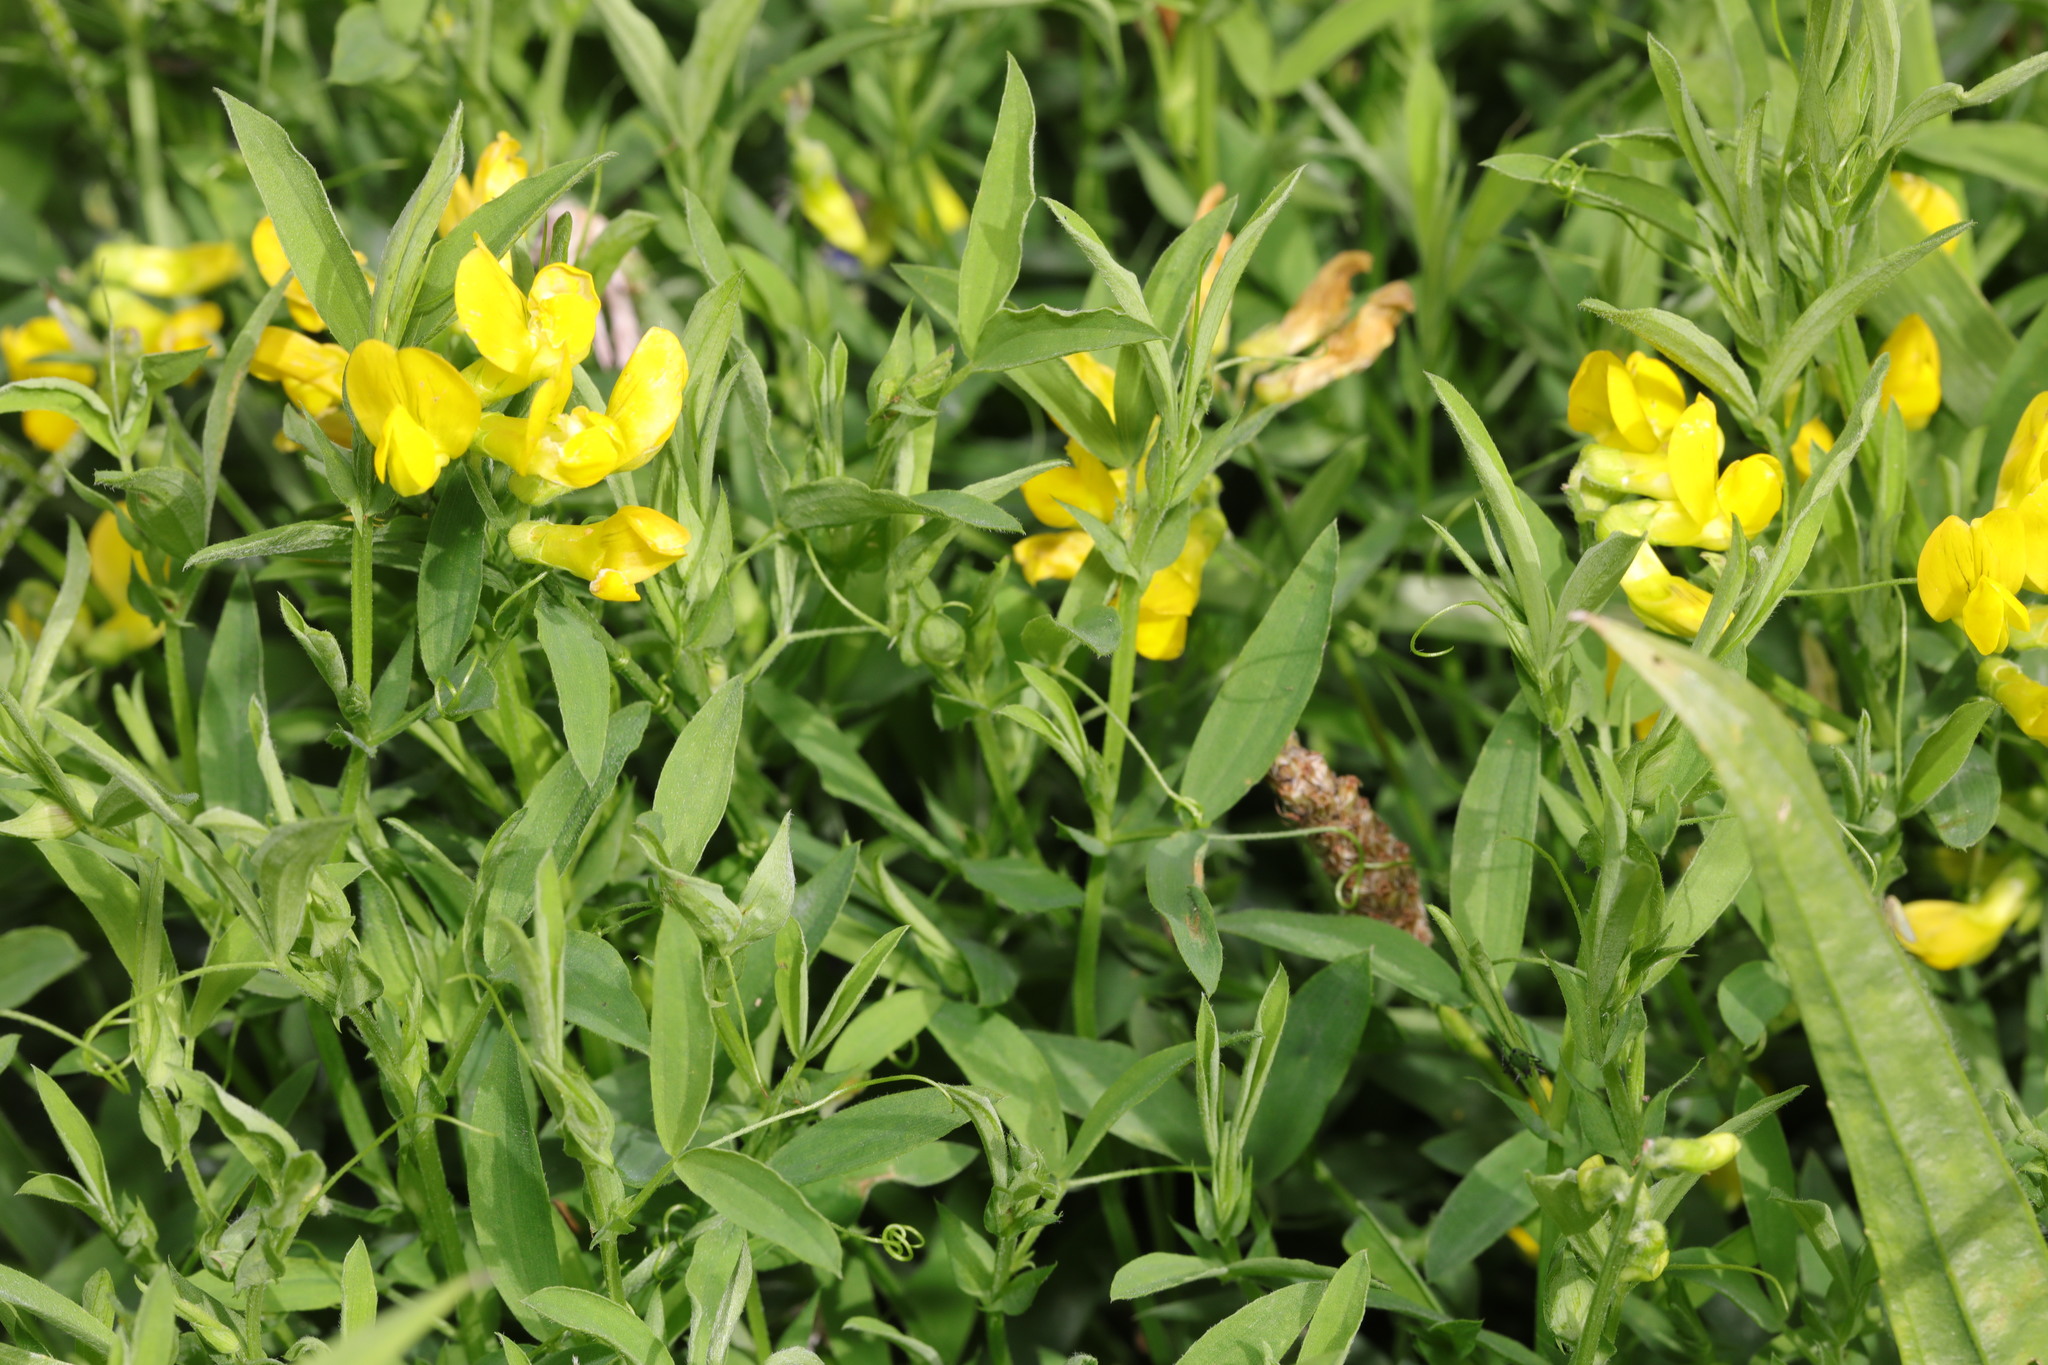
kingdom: Plantae
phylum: Tracheophyta
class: Magnoliopsida
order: Fabales
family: Fabaceae
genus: Lathyrus
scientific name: Lathyrus pratensis
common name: Meadow vetchling
